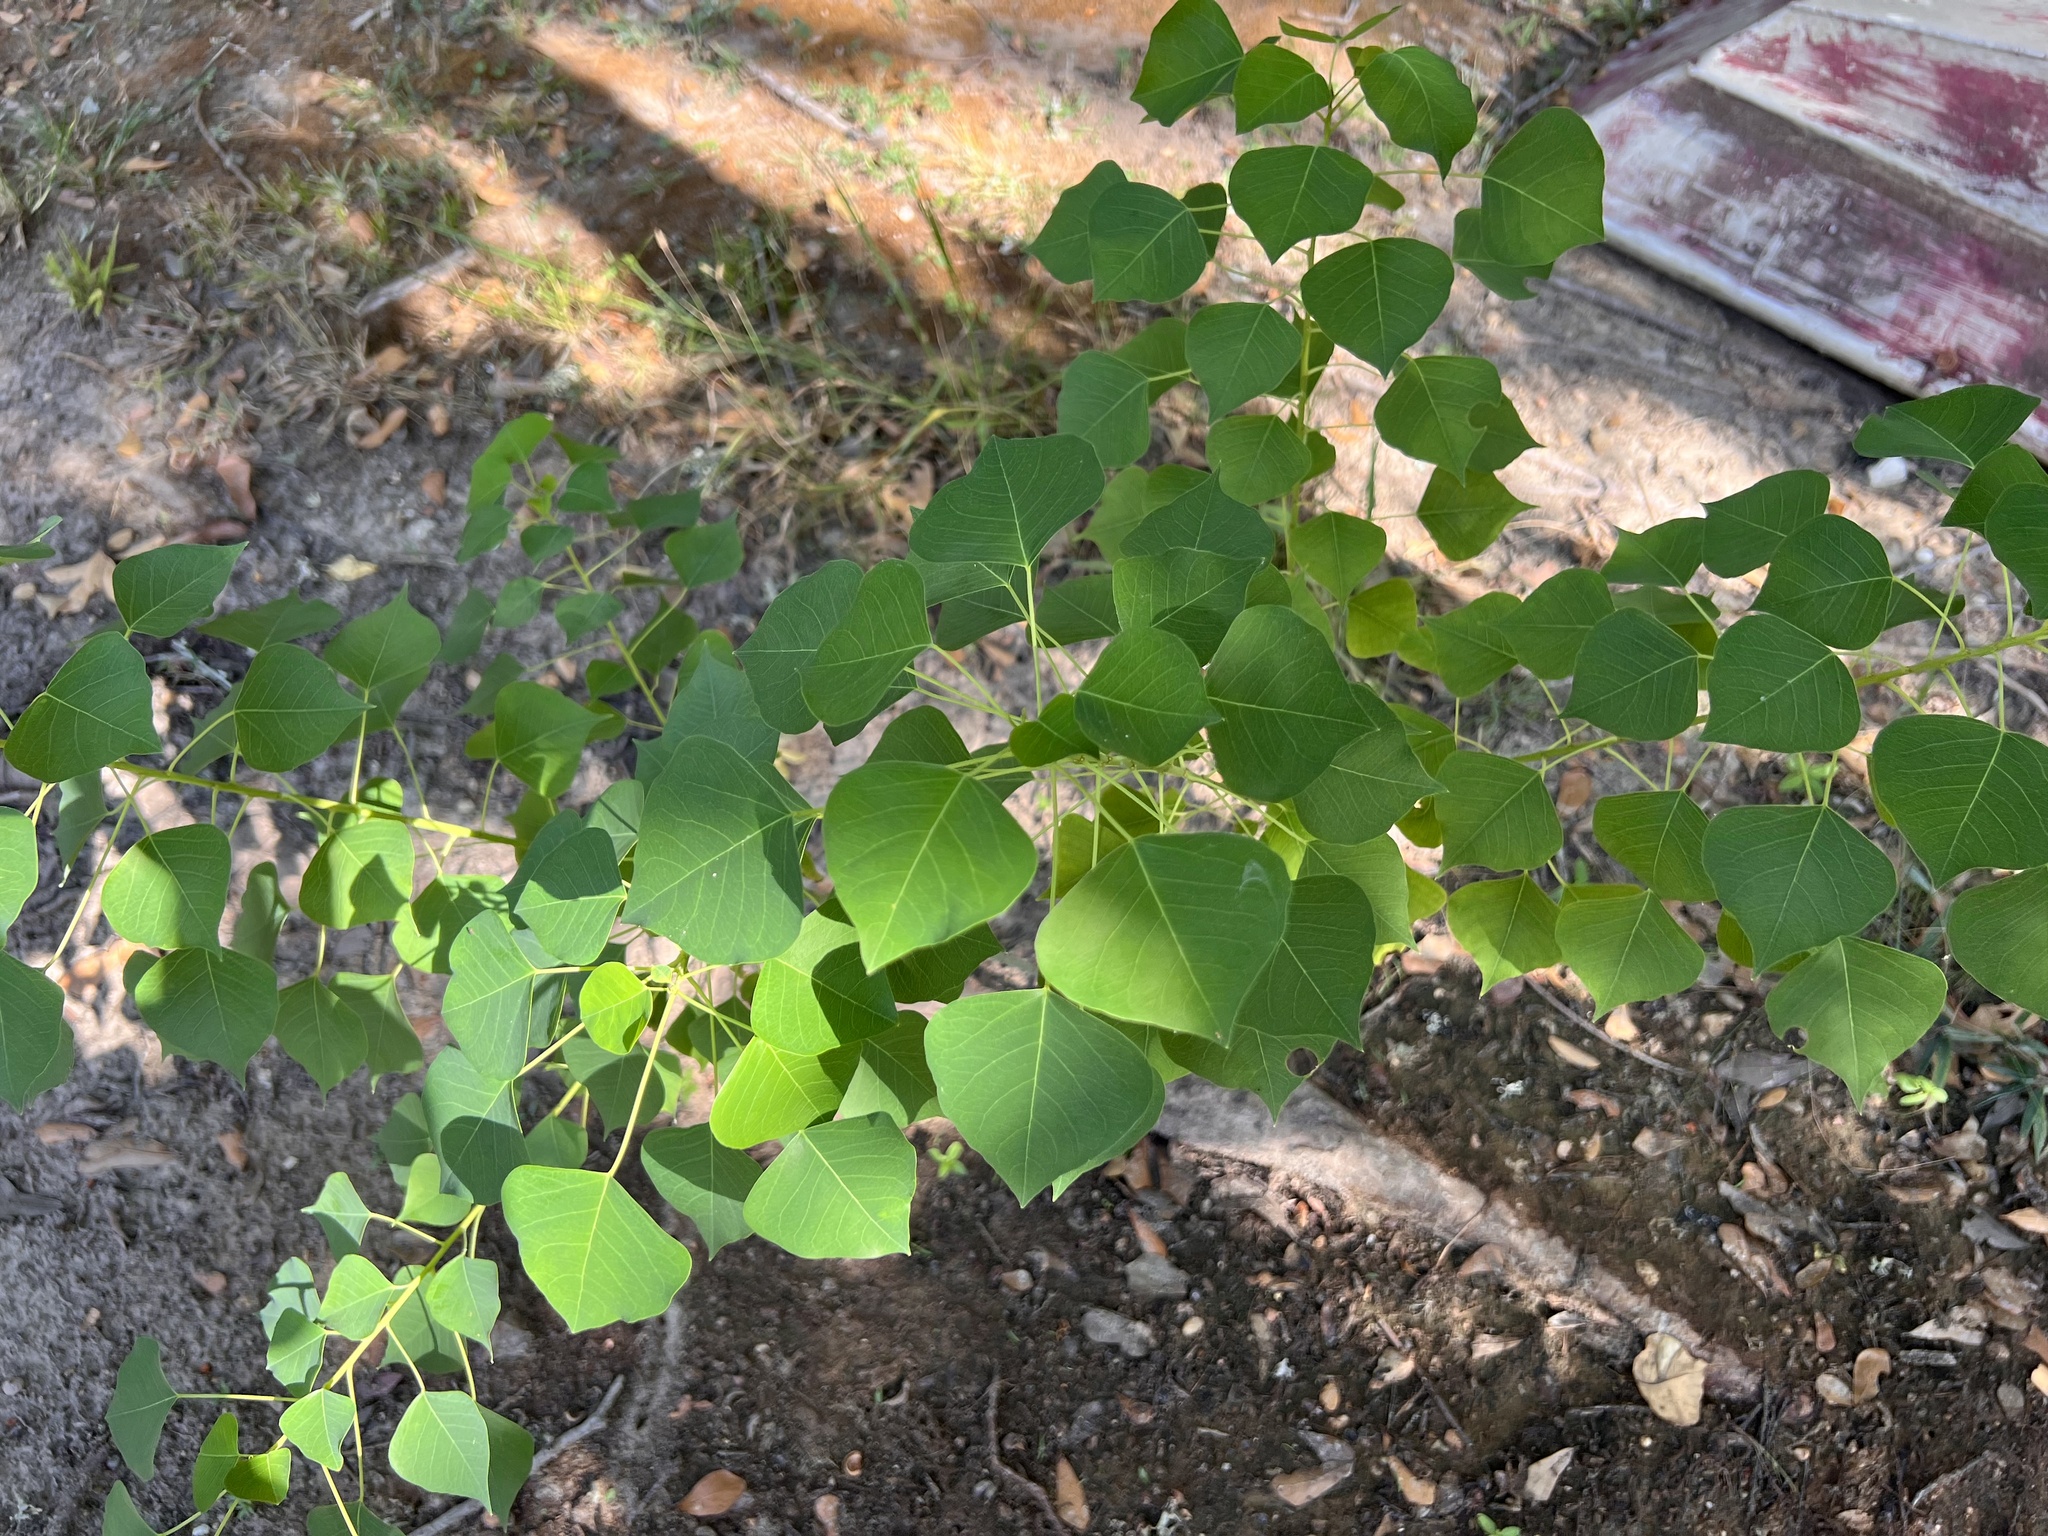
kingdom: Plantae
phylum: Tracheophyta
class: Magnoliopsida
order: Malpighiales
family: Euphorbiaceae
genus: Triadica
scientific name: Triadica sebifera
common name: Chinese tallow
